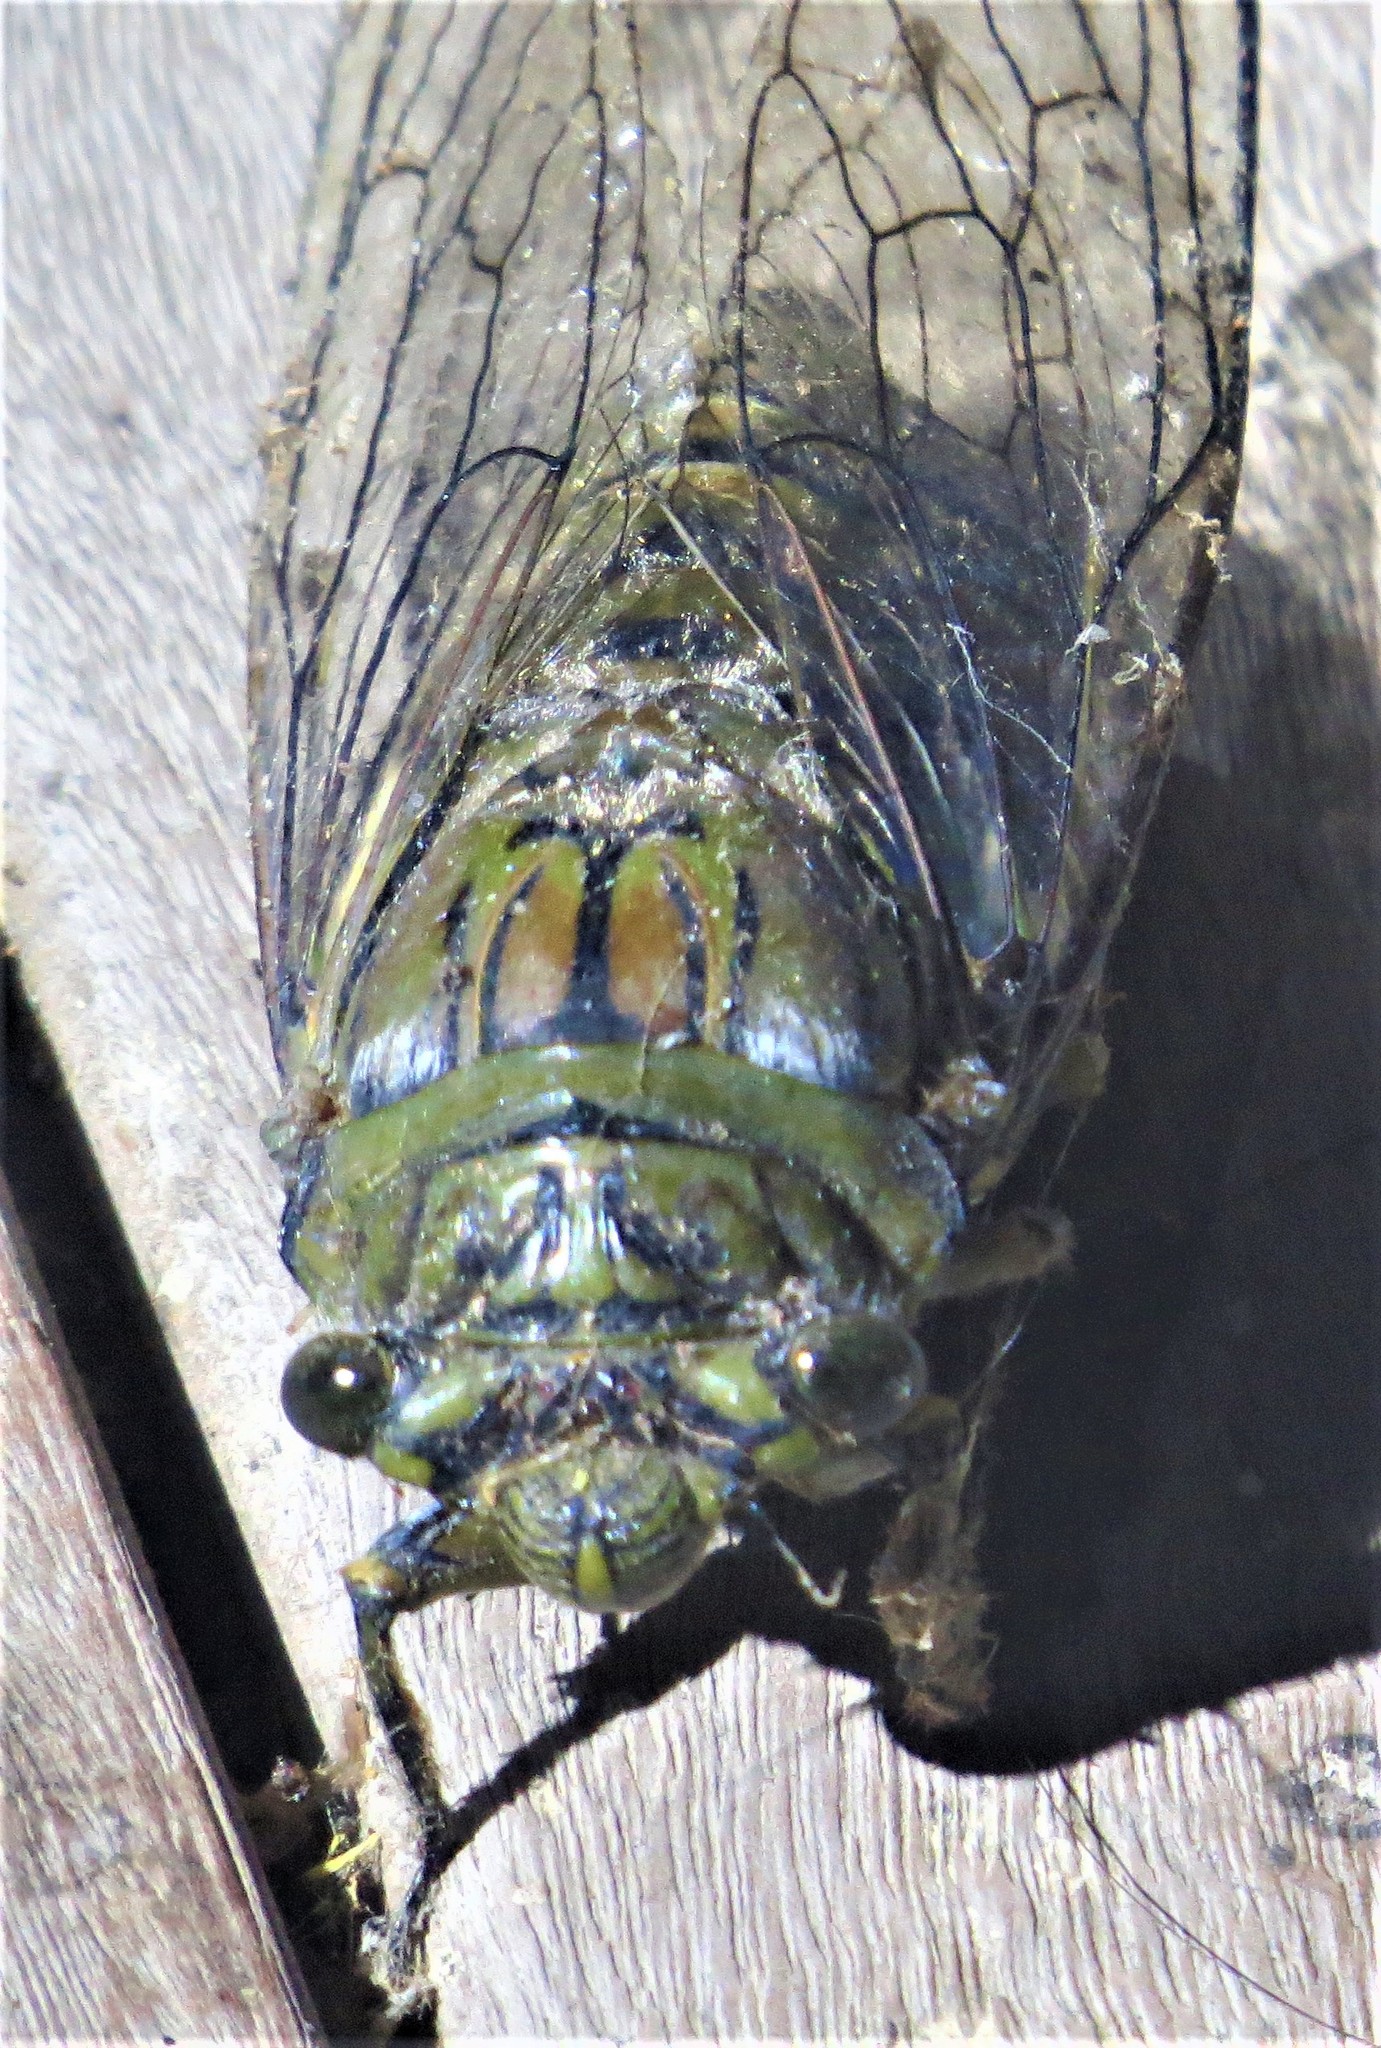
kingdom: Animalia
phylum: Arthropoda
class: Insecta
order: Hemiptera
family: Cicadidae
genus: Quesada
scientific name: Quesada gigas
